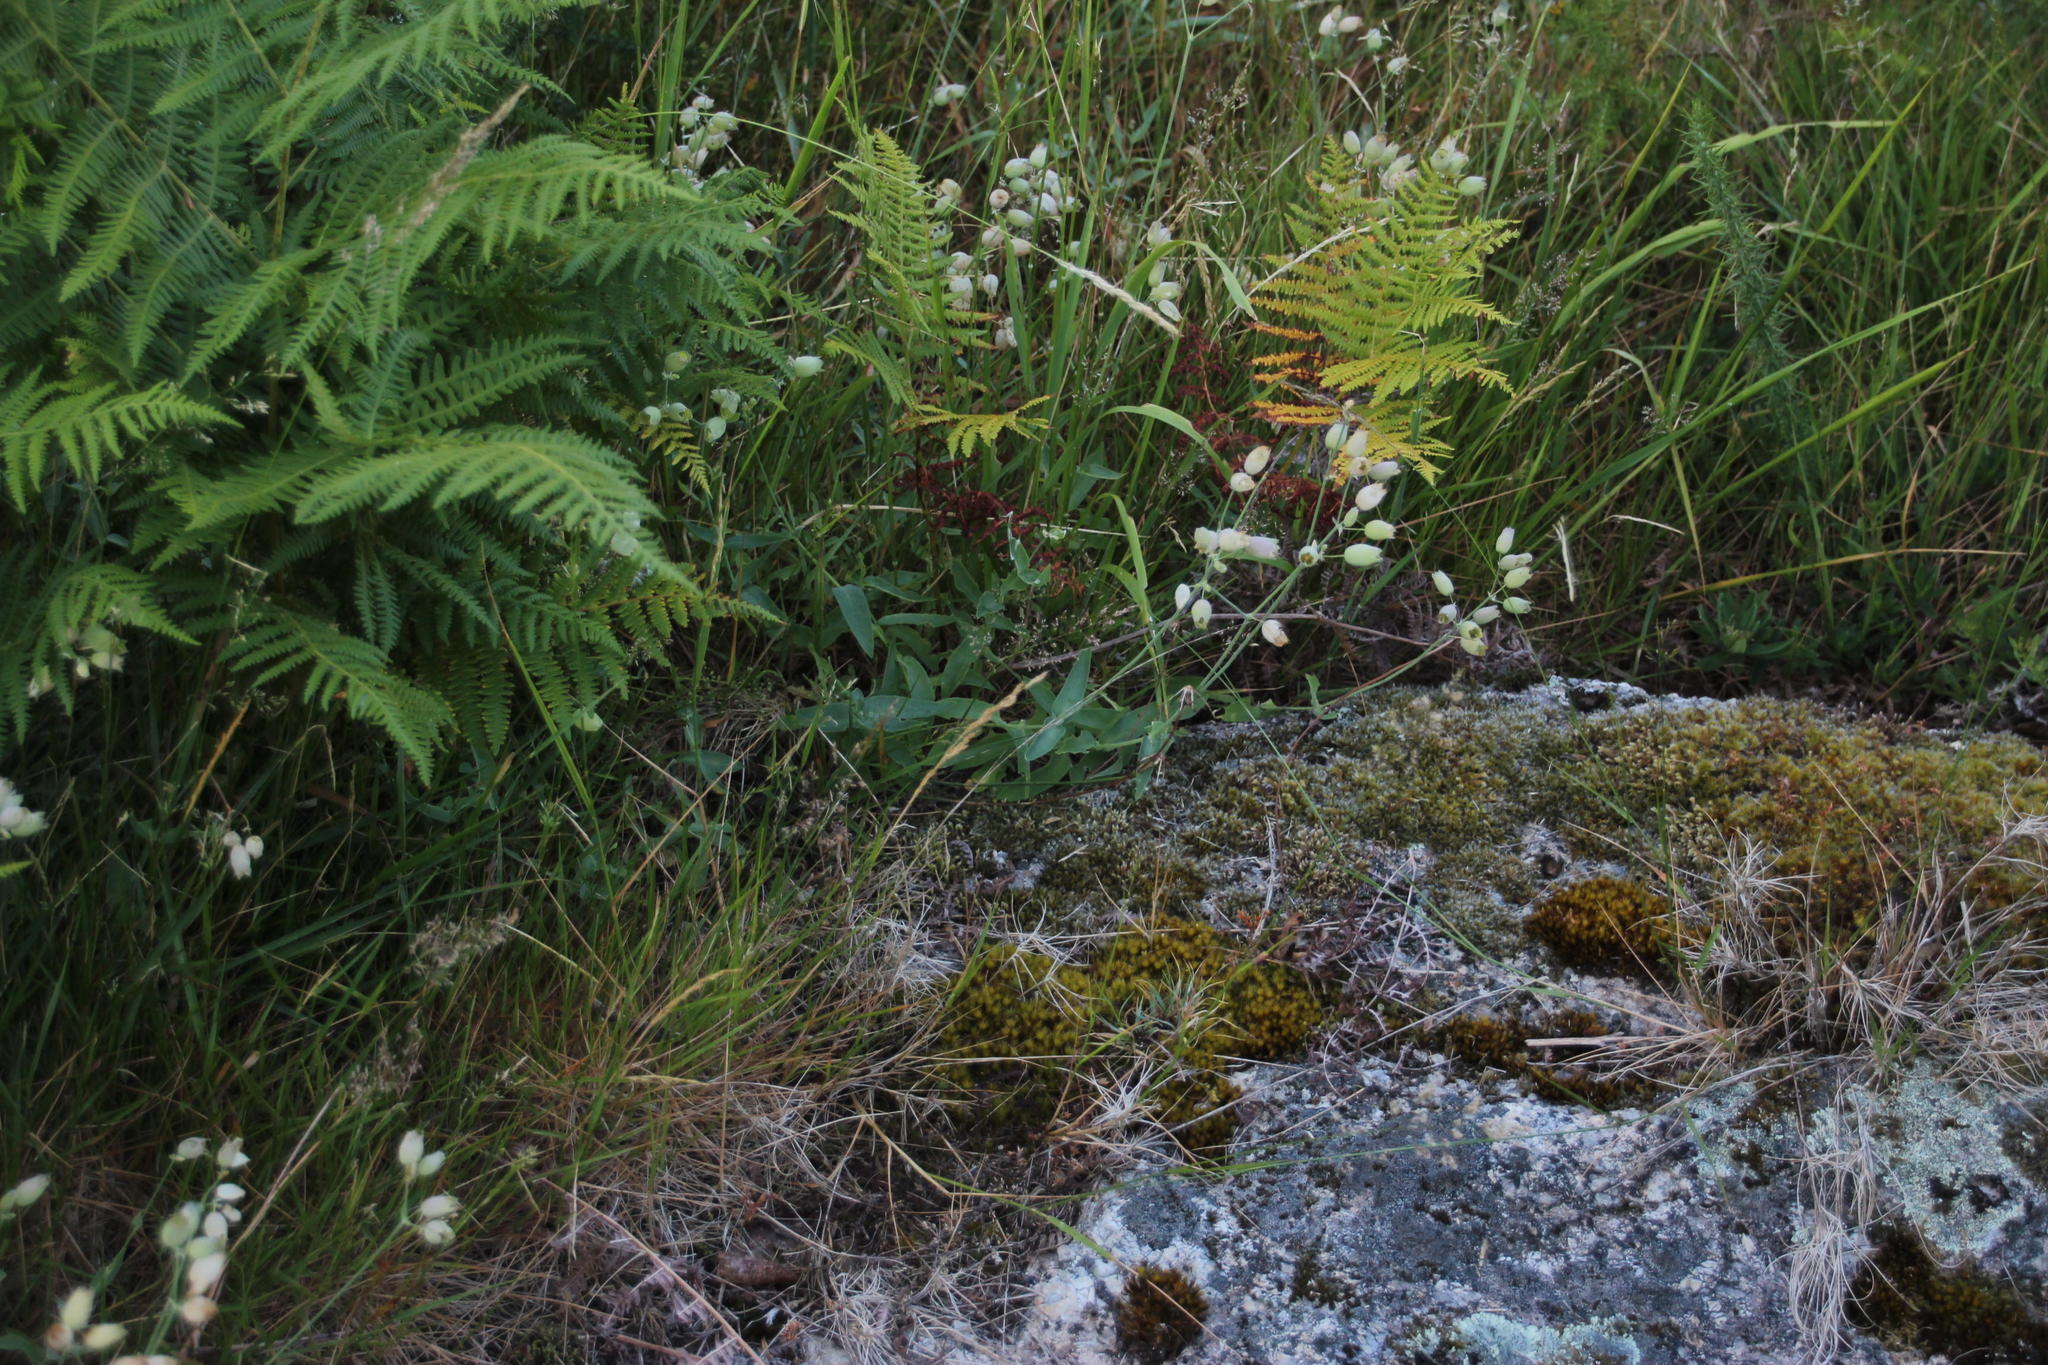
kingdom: Plantae
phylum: Tracheophyta
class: Magnoliopsida
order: Caryophyllales
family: Caryophyllaceae
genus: Silene
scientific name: Silene vulgaris
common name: Bladder campion
